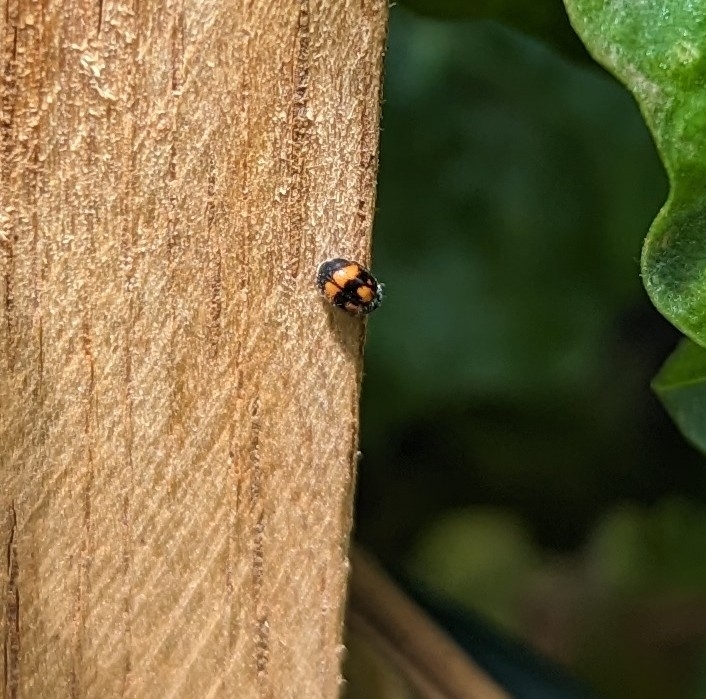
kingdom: Animalia
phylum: Arthropoda
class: Insecta
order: Coleoptera
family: Coccinellidae
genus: Diomus
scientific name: Diomus
